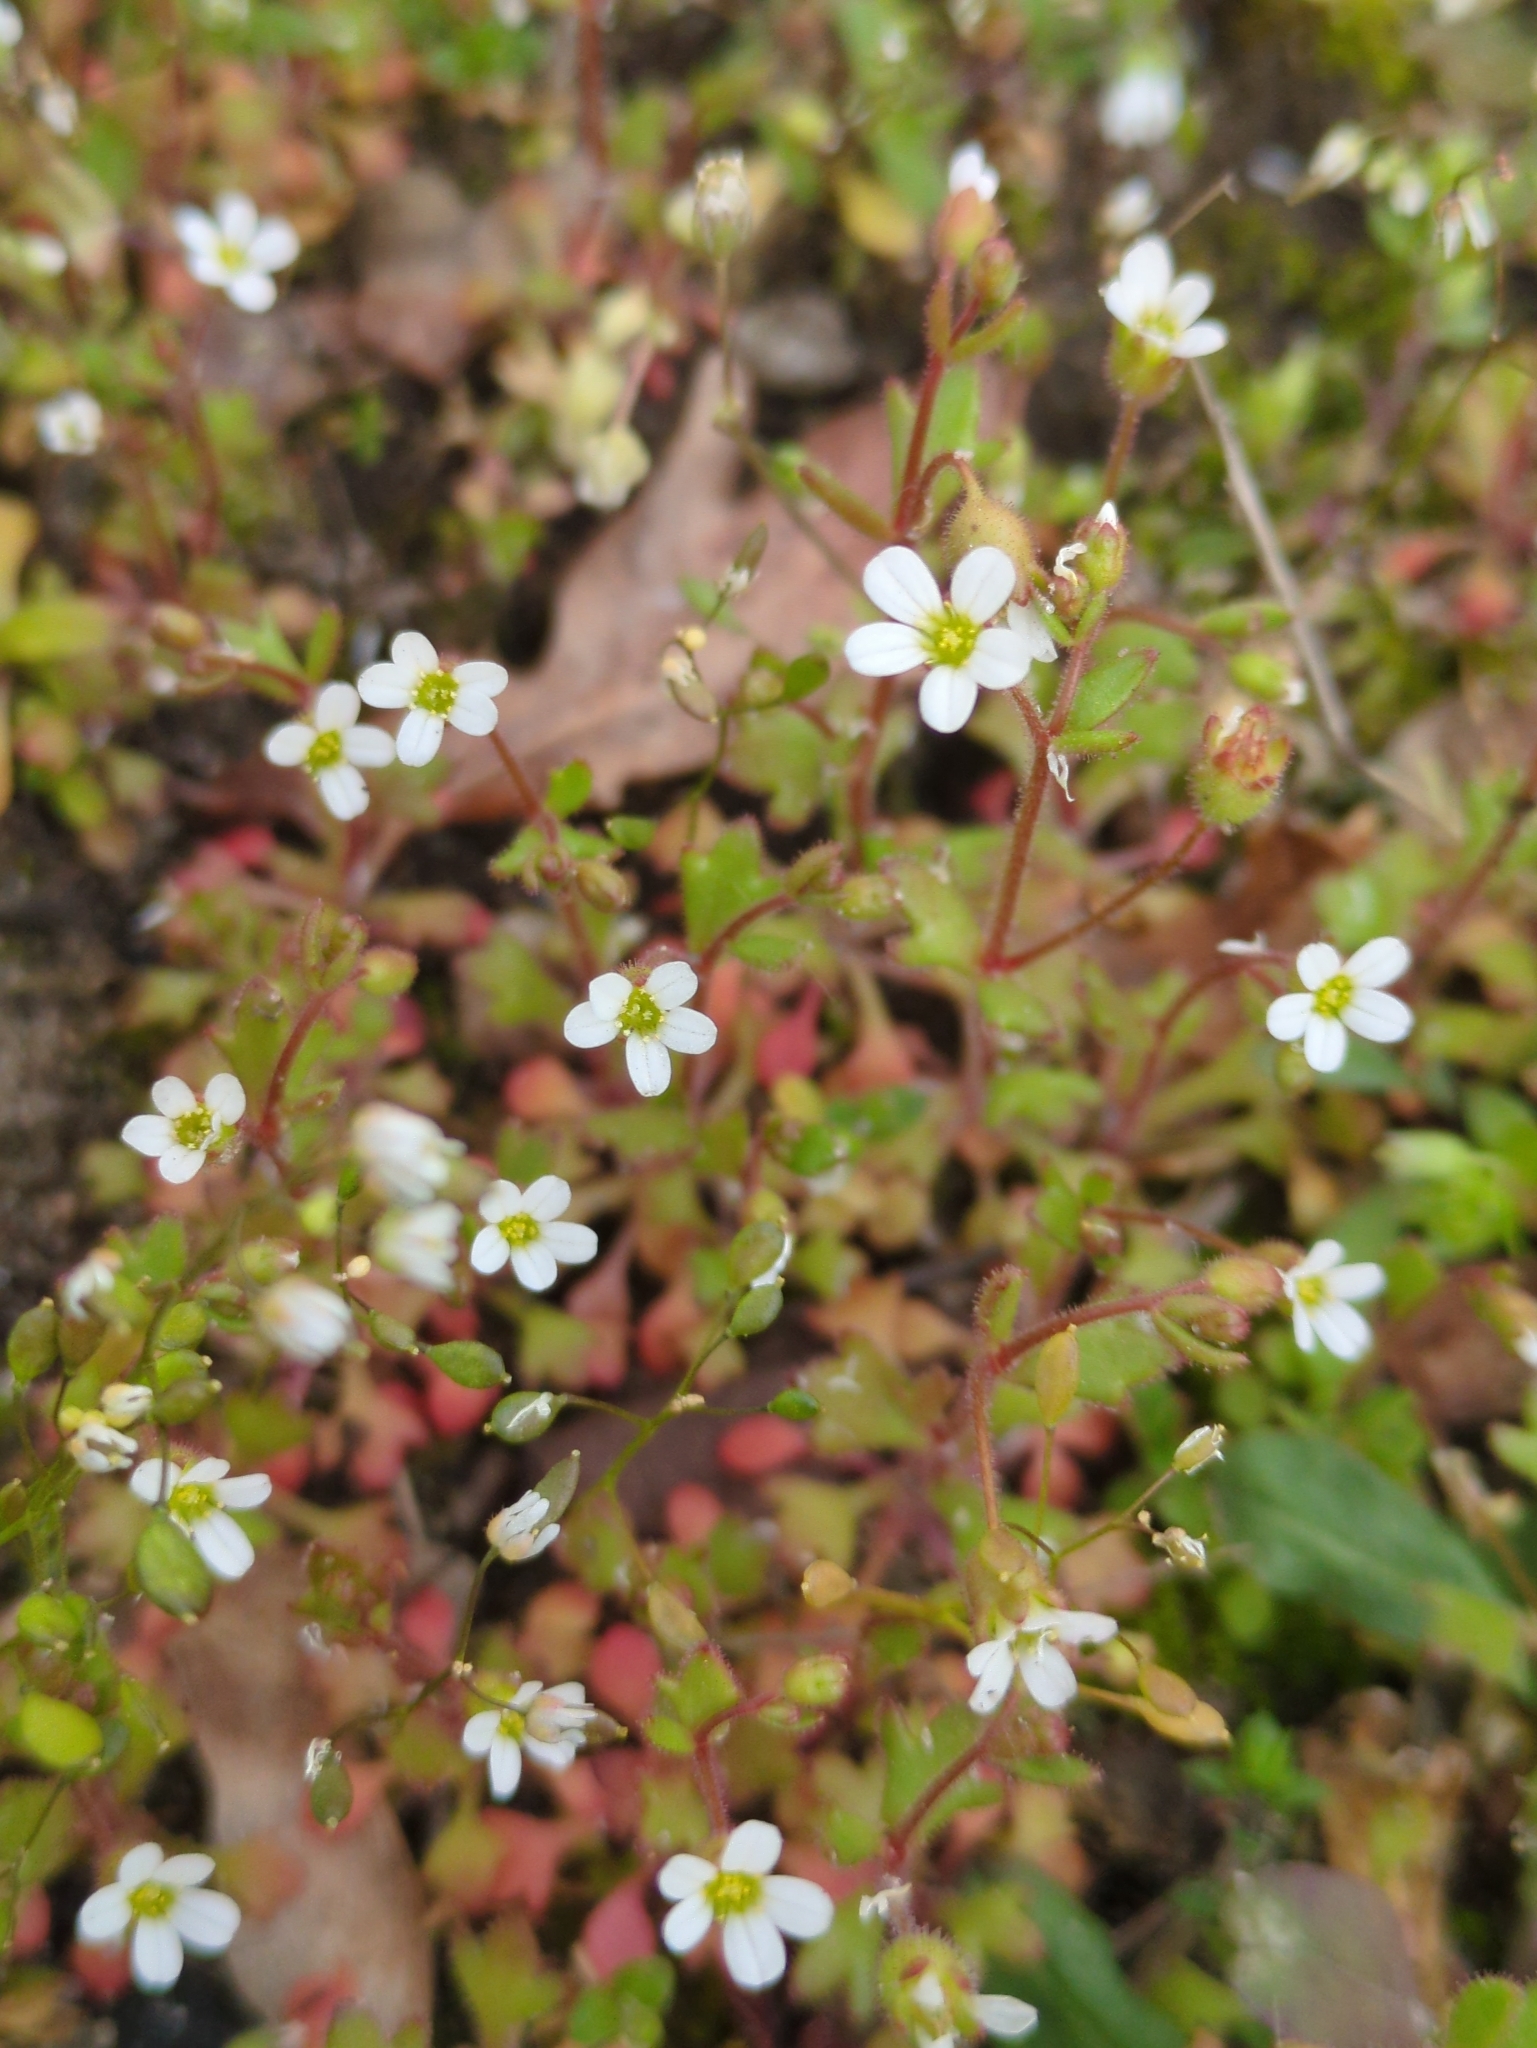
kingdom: Plantae
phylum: Tracheophyta
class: Magnoliopsida
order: Saxifragales
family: Saxifragaceae
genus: Saxifraga
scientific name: Saxifraga tridactylites
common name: Rue-leaved saxifrage
